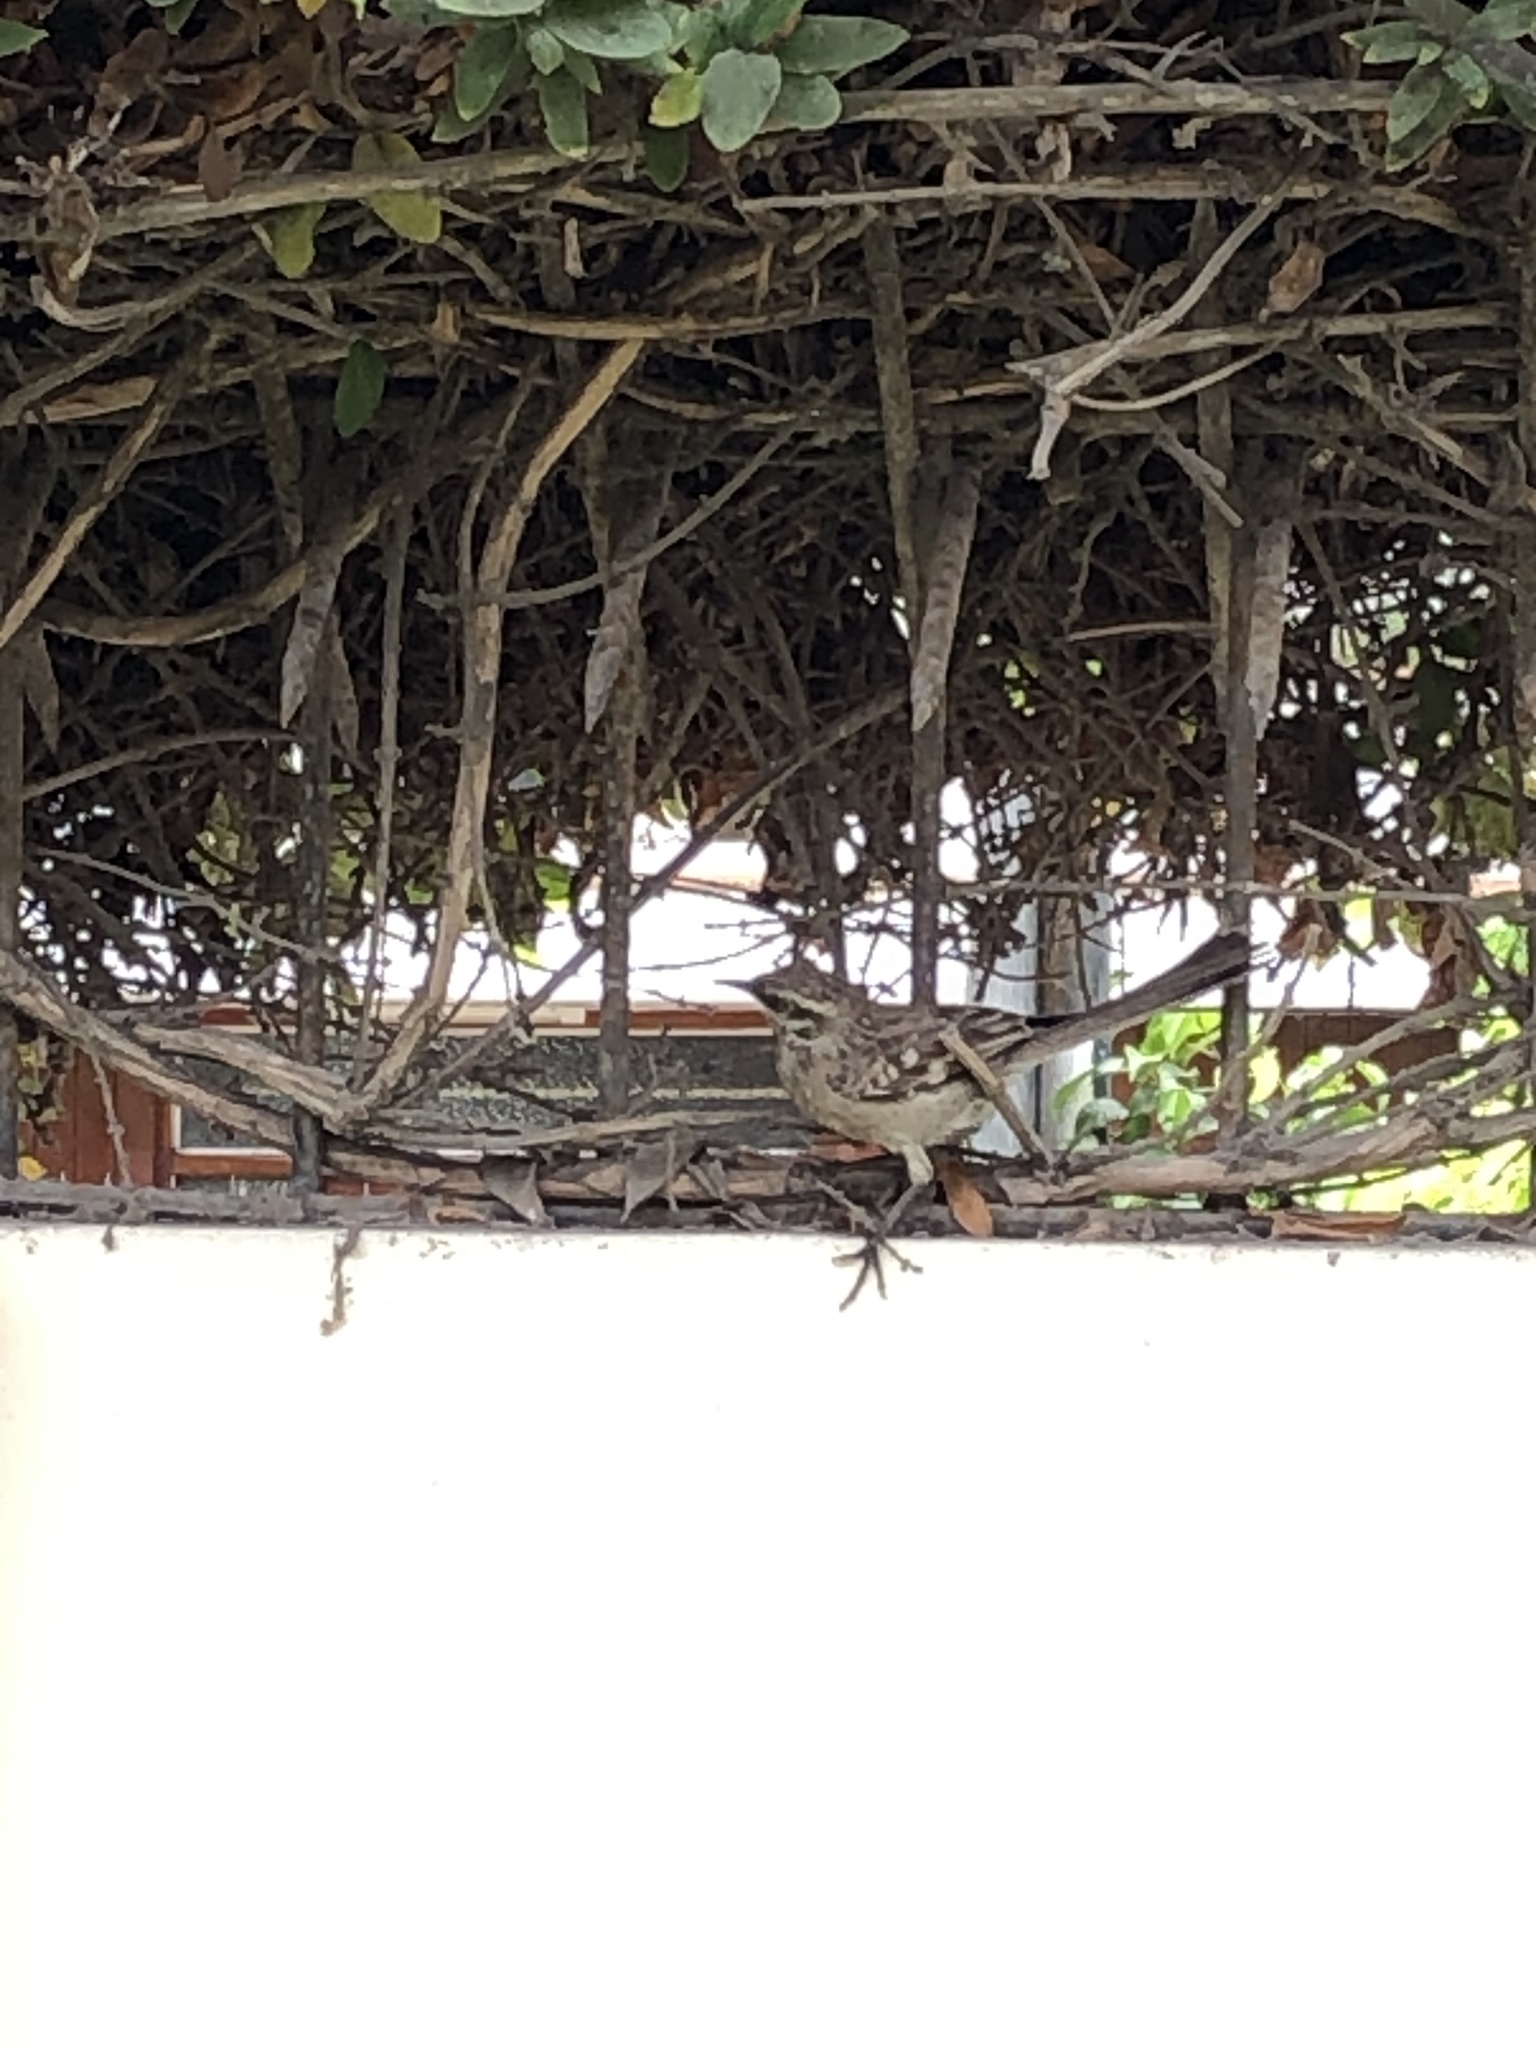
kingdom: Animalia
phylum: Chordata
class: Aves
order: Passeriformes
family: Mimidae
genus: Mimus
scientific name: Mimus longicaudatus
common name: Long-tailed mockingbird
